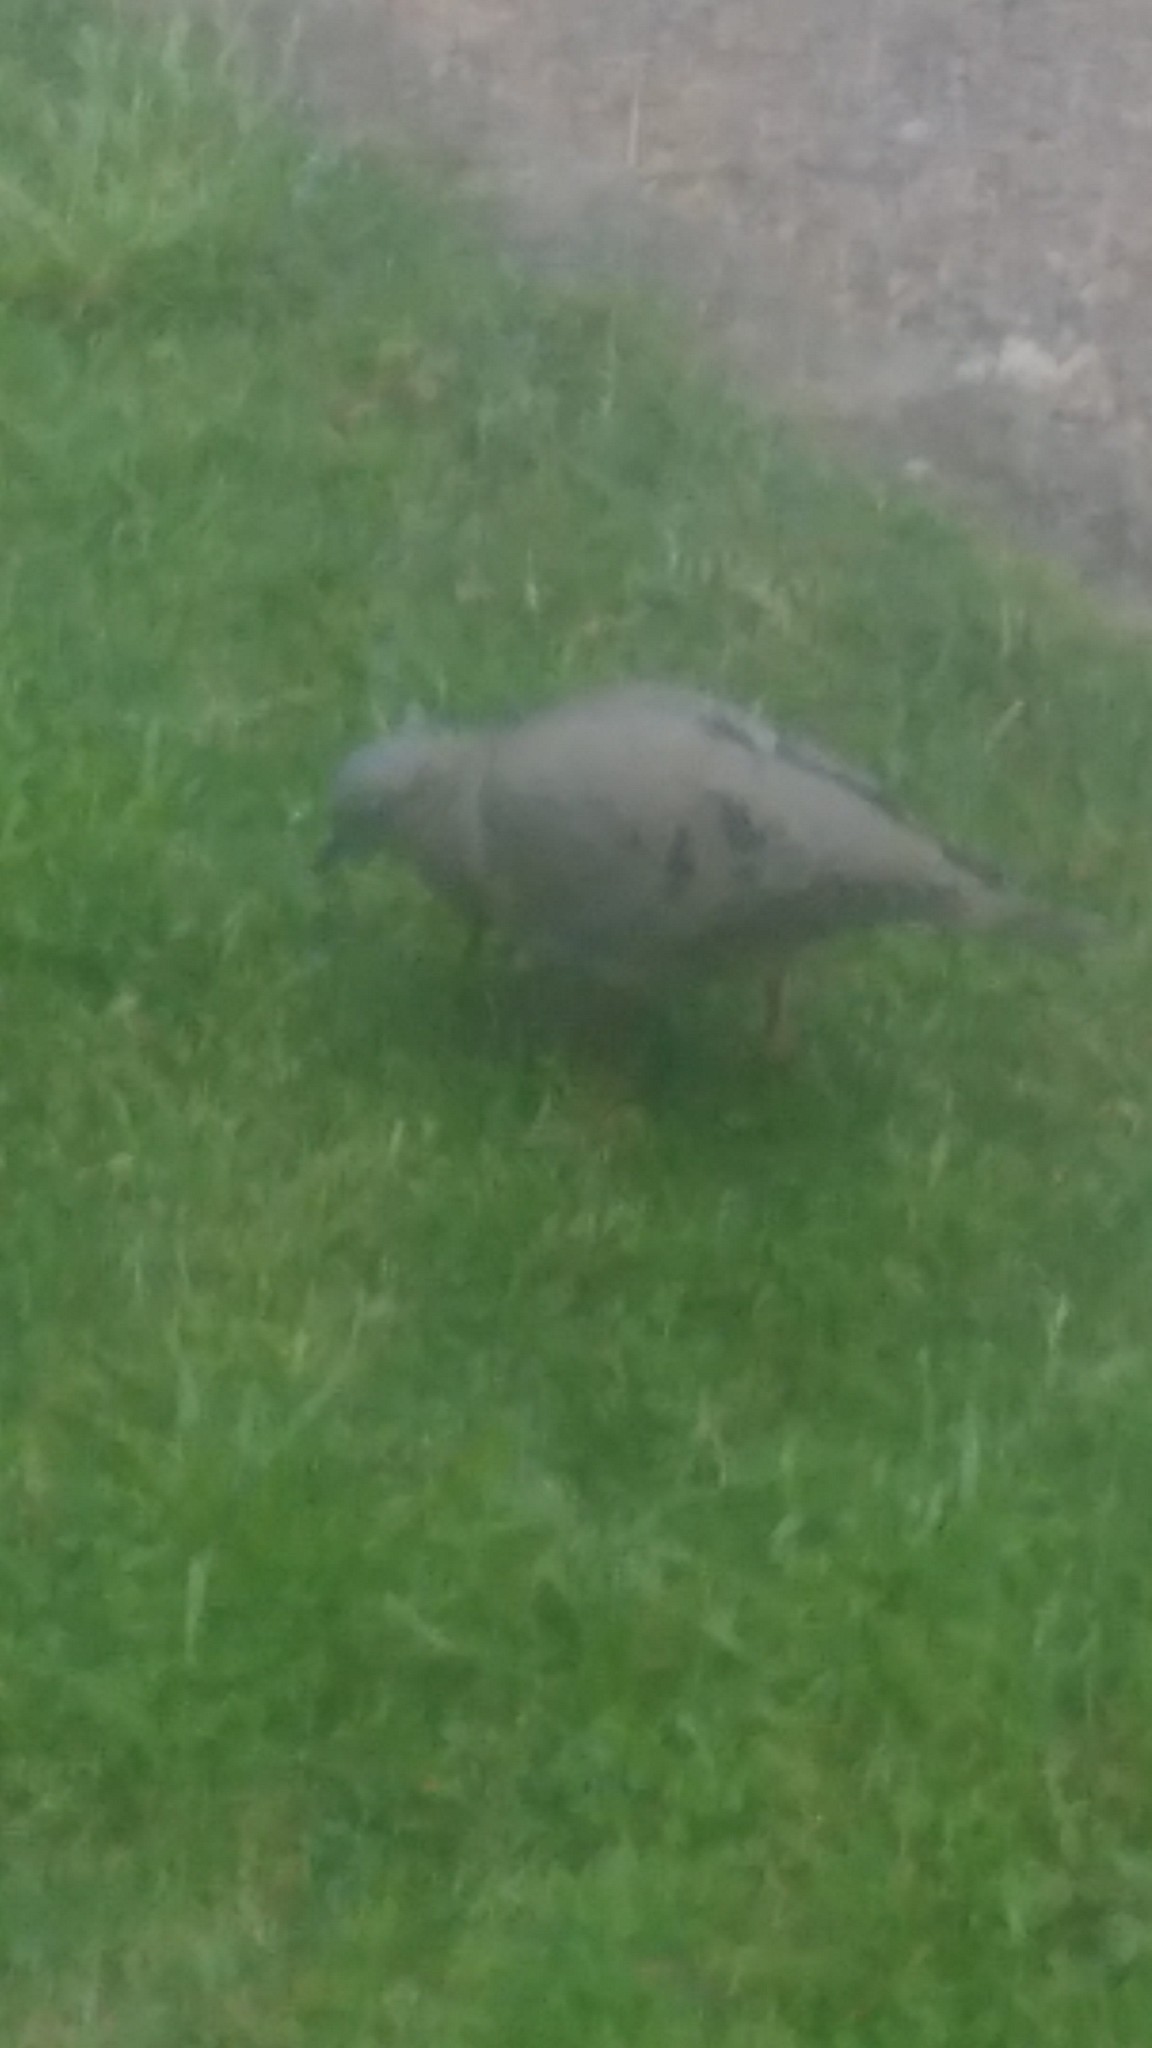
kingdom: Animalia
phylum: Chordata
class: Aves
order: Columbiformes
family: Columbidae
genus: Zenaida
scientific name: Zenaida auriculata
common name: Eared dove
